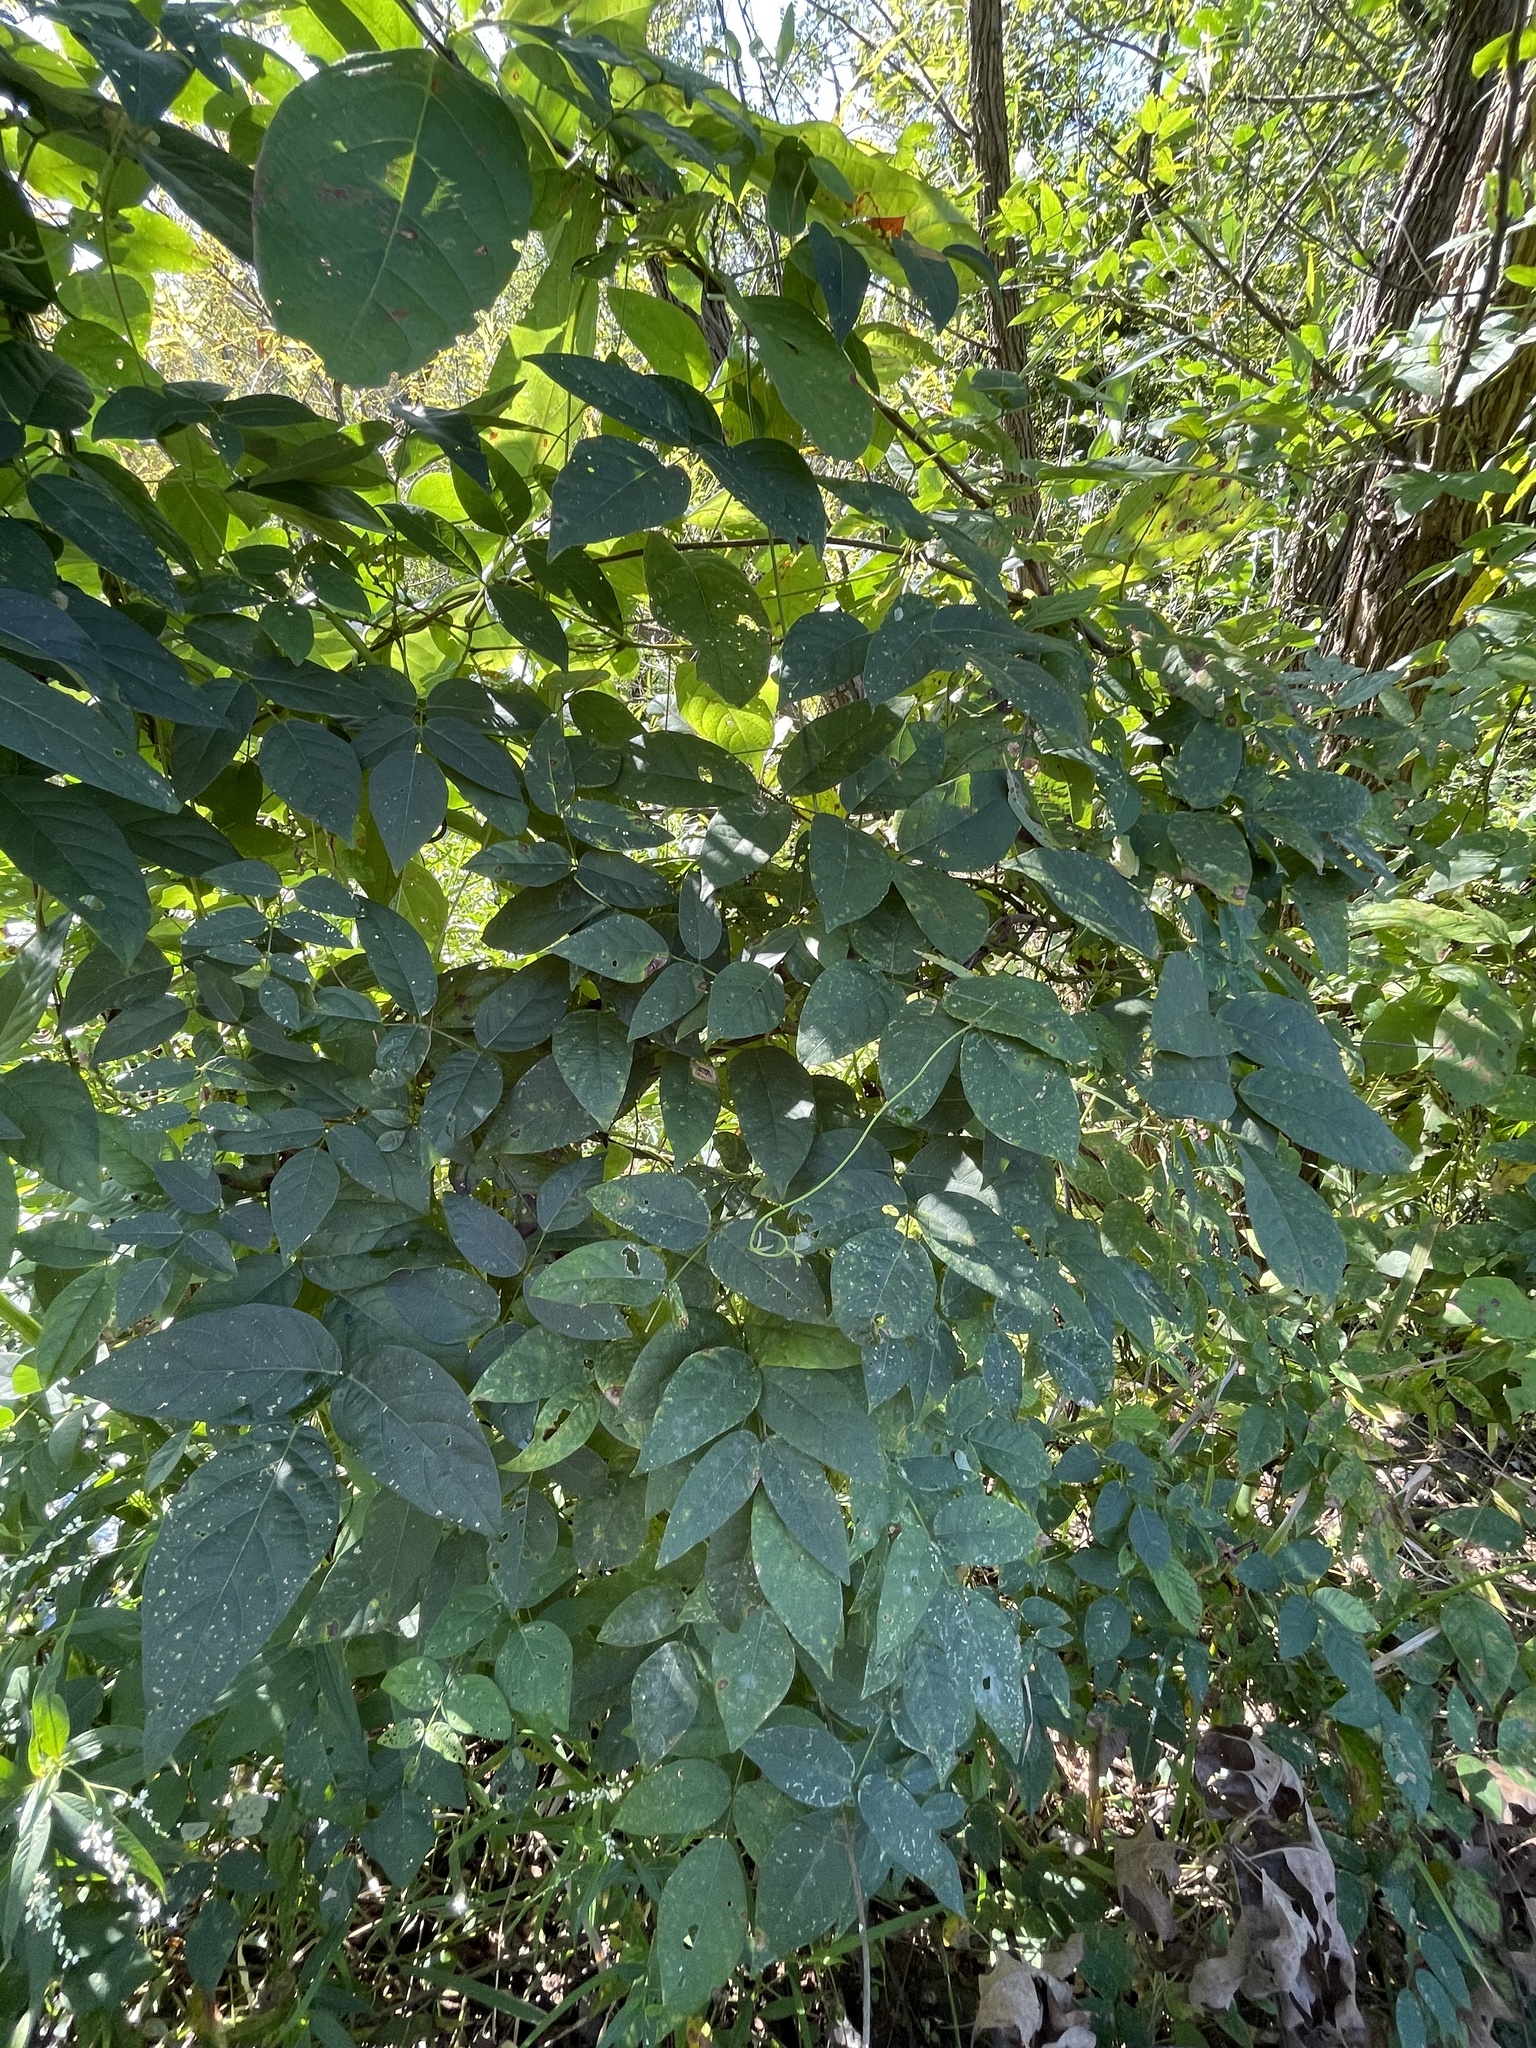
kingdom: Plantae
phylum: Tracheophyta
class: Magnoliopsida
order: Fabales
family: Fabaceae
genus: Apios
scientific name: Apios americana
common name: American potato-bean
